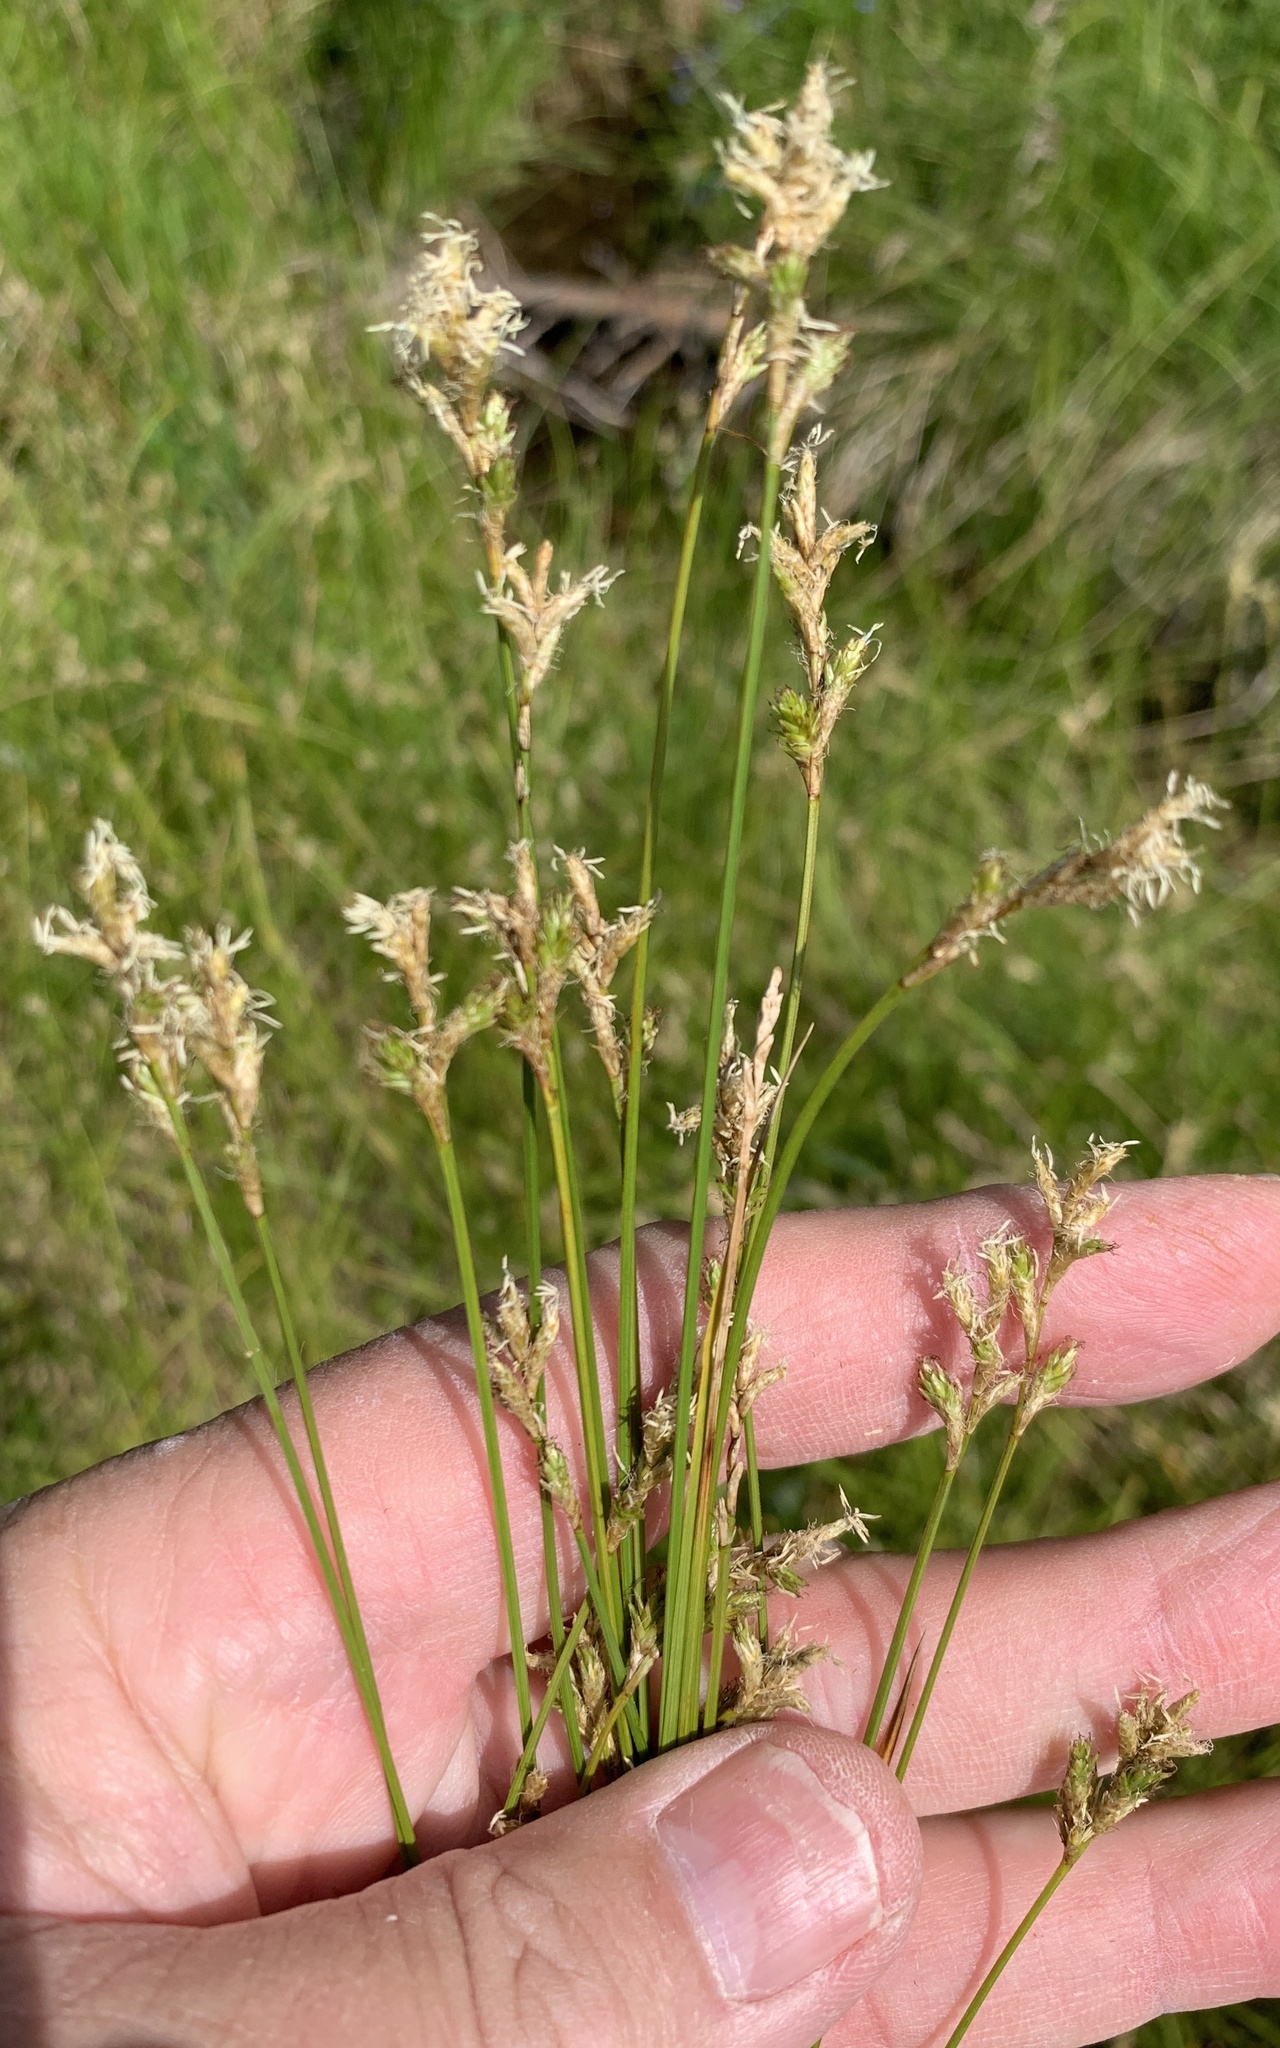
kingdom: Plantae
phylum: Tracheophyta
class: Liliopsida
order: Poales
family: Cyperaceae
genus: Carex
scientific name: Carex brizoides
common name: Quaking-grass sedge
